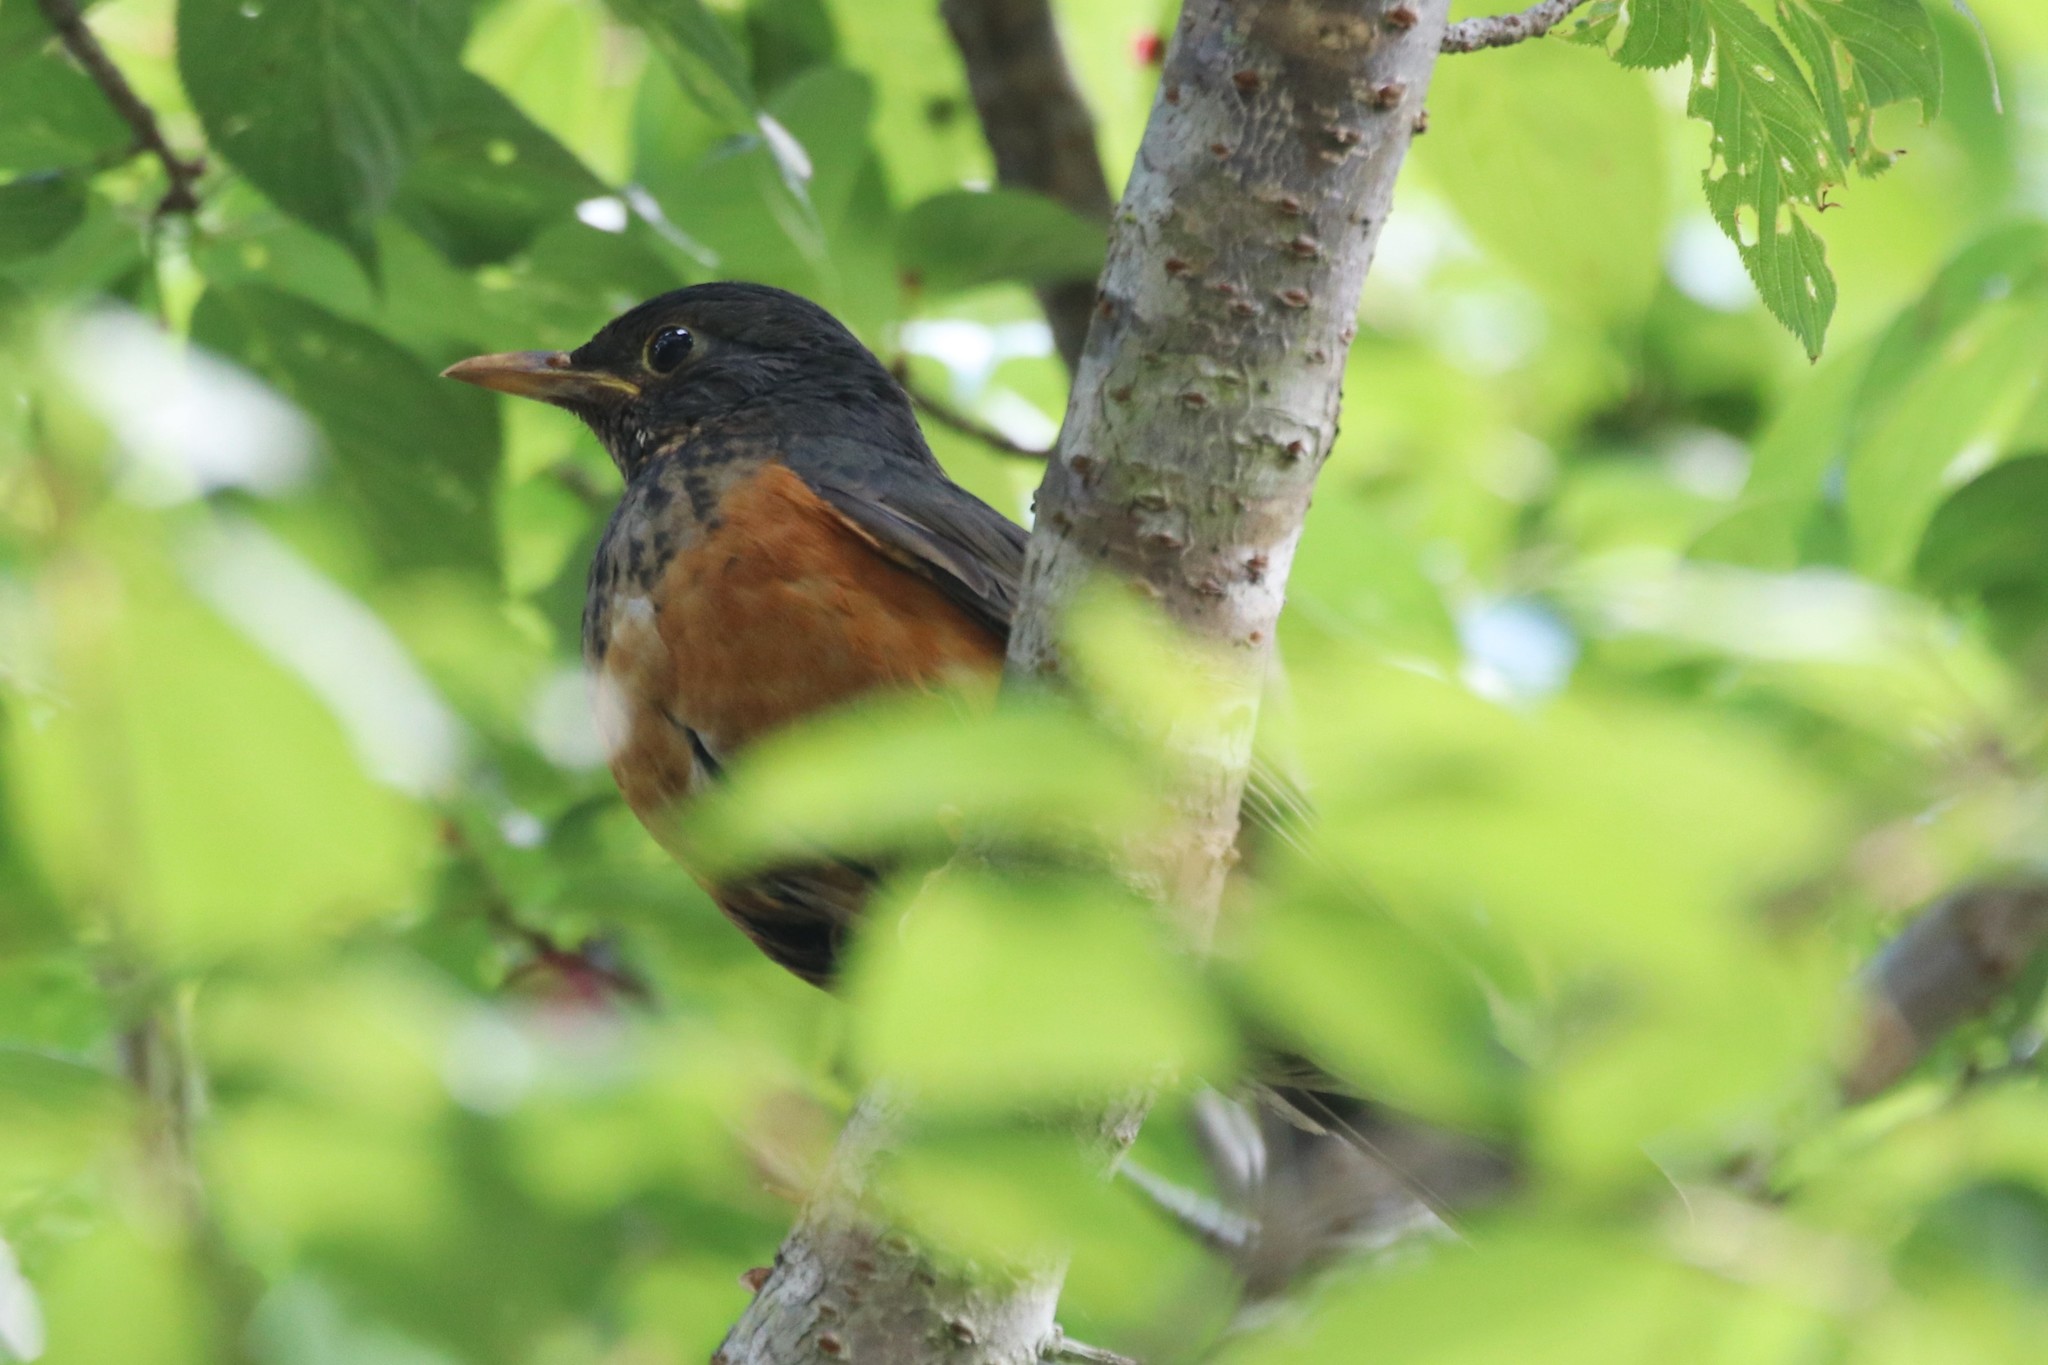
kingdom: Animalia
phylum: Chordata
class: Aves
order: Passeriformes
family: Turdidae
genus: Turdus
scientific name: Turdus dissimilis
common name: Black-breasted thrush
